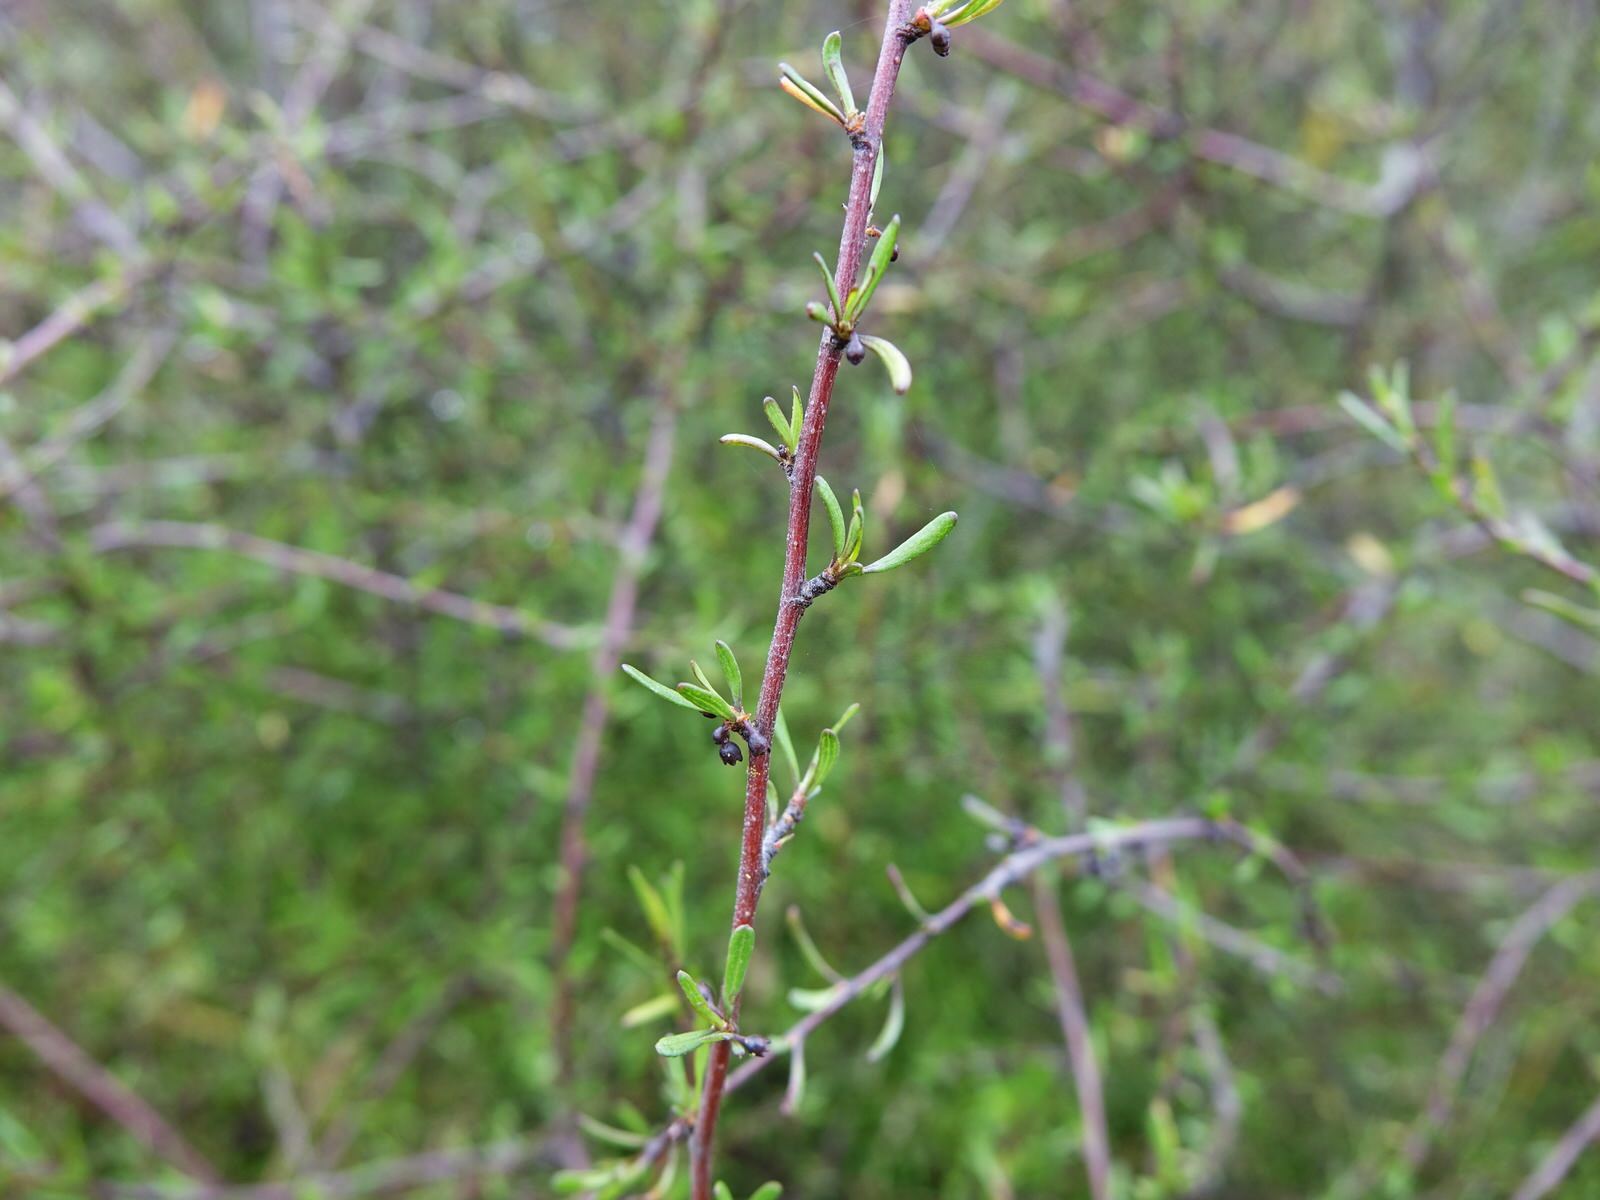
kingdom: Plantae
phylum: Tracheophyta
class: Magnoliopsida
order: Malvales
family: Malvaceae
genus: Plagianthus
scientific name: Plagianthus divaricatus
